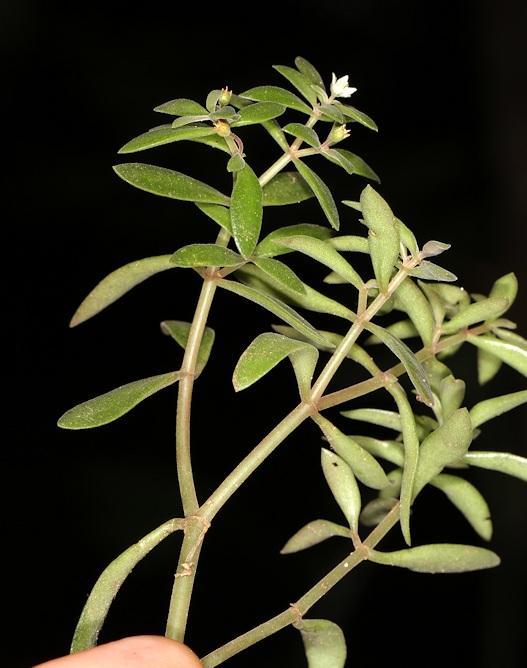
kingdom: Plantae
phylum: Tracheophyta
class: Magnoliopsida
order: Saxifragales
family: Crassulaceae
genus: Crassula
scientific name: Crassula expansa
